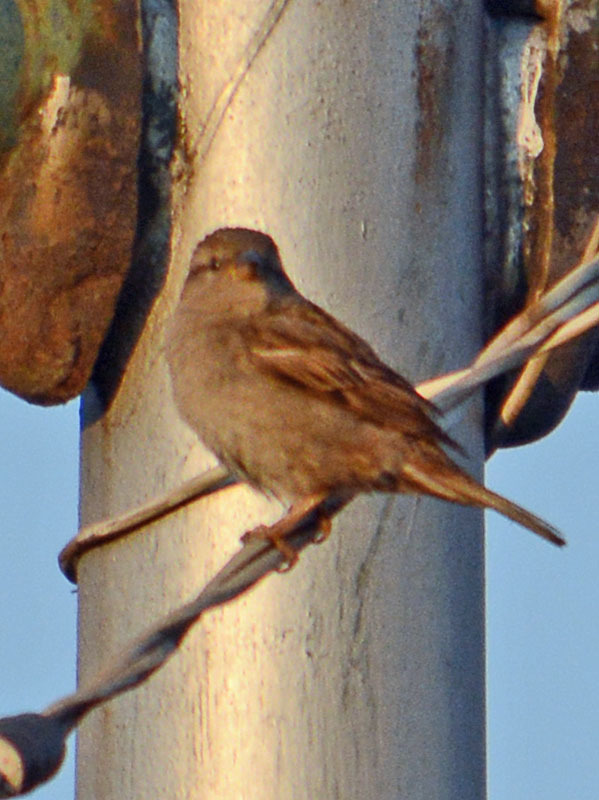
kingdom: Animalia
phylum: Chordata
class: Aves
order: Passeriformes
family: Passeridae
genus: Passer
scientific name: Passer domesticus
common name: House sparrow
